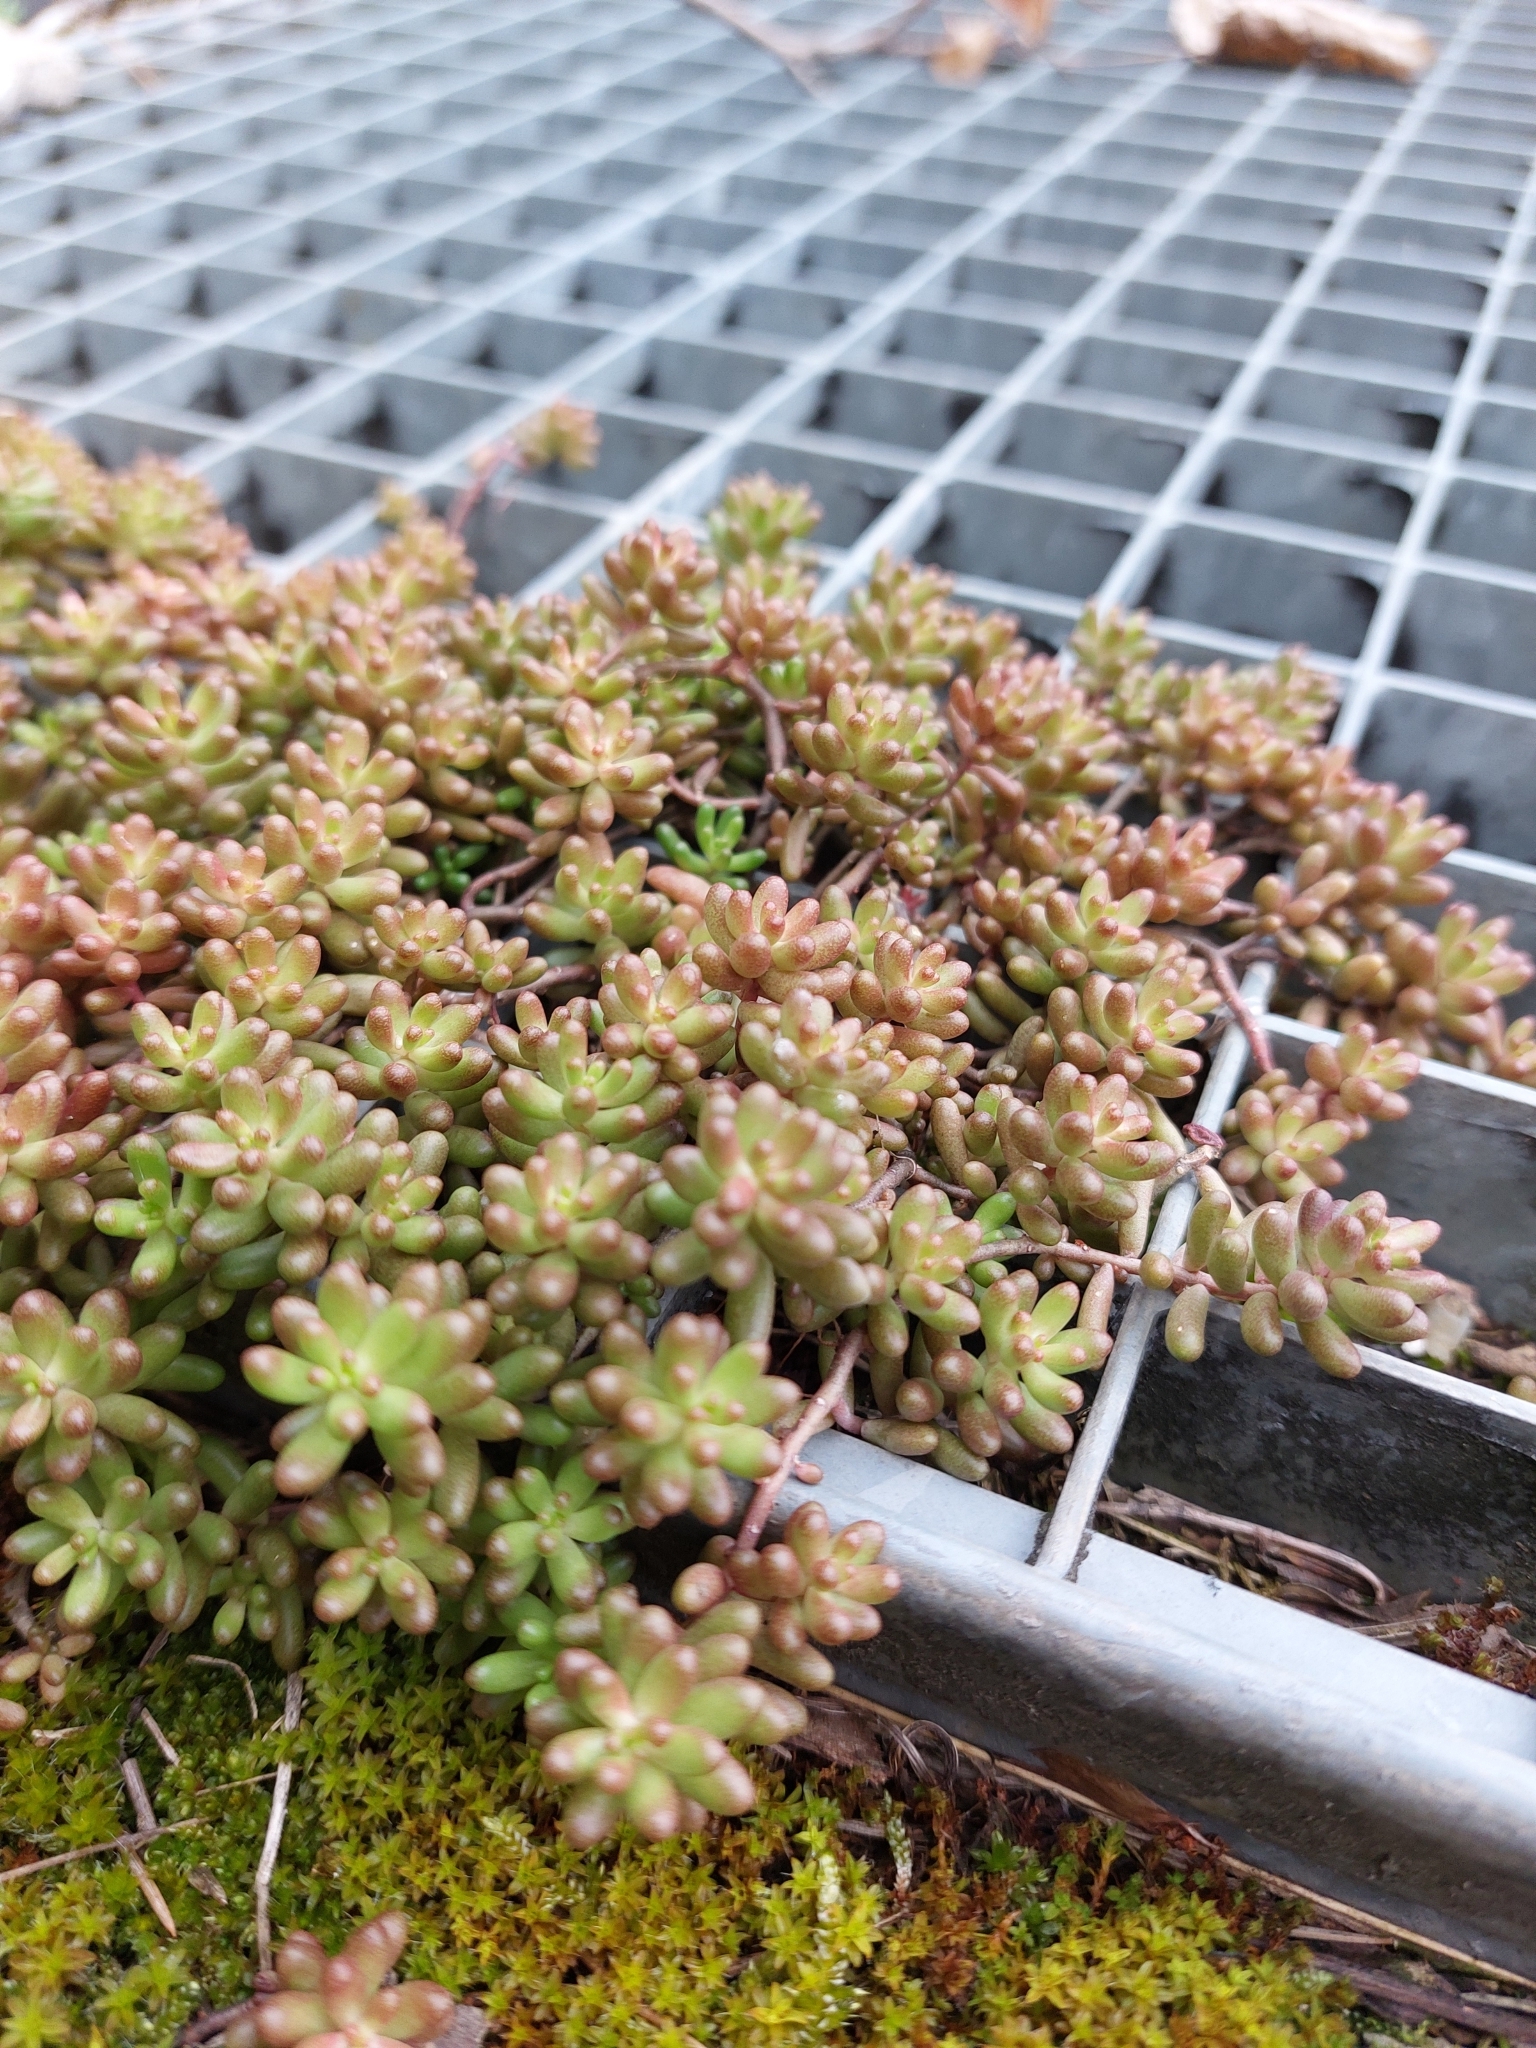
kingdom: Plantae
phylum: Tracheophyta
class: Magnoliopsida
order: Saxifragales
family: Crassulaceae
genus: Sedum
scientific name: Sedum album
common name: White stonecrop
